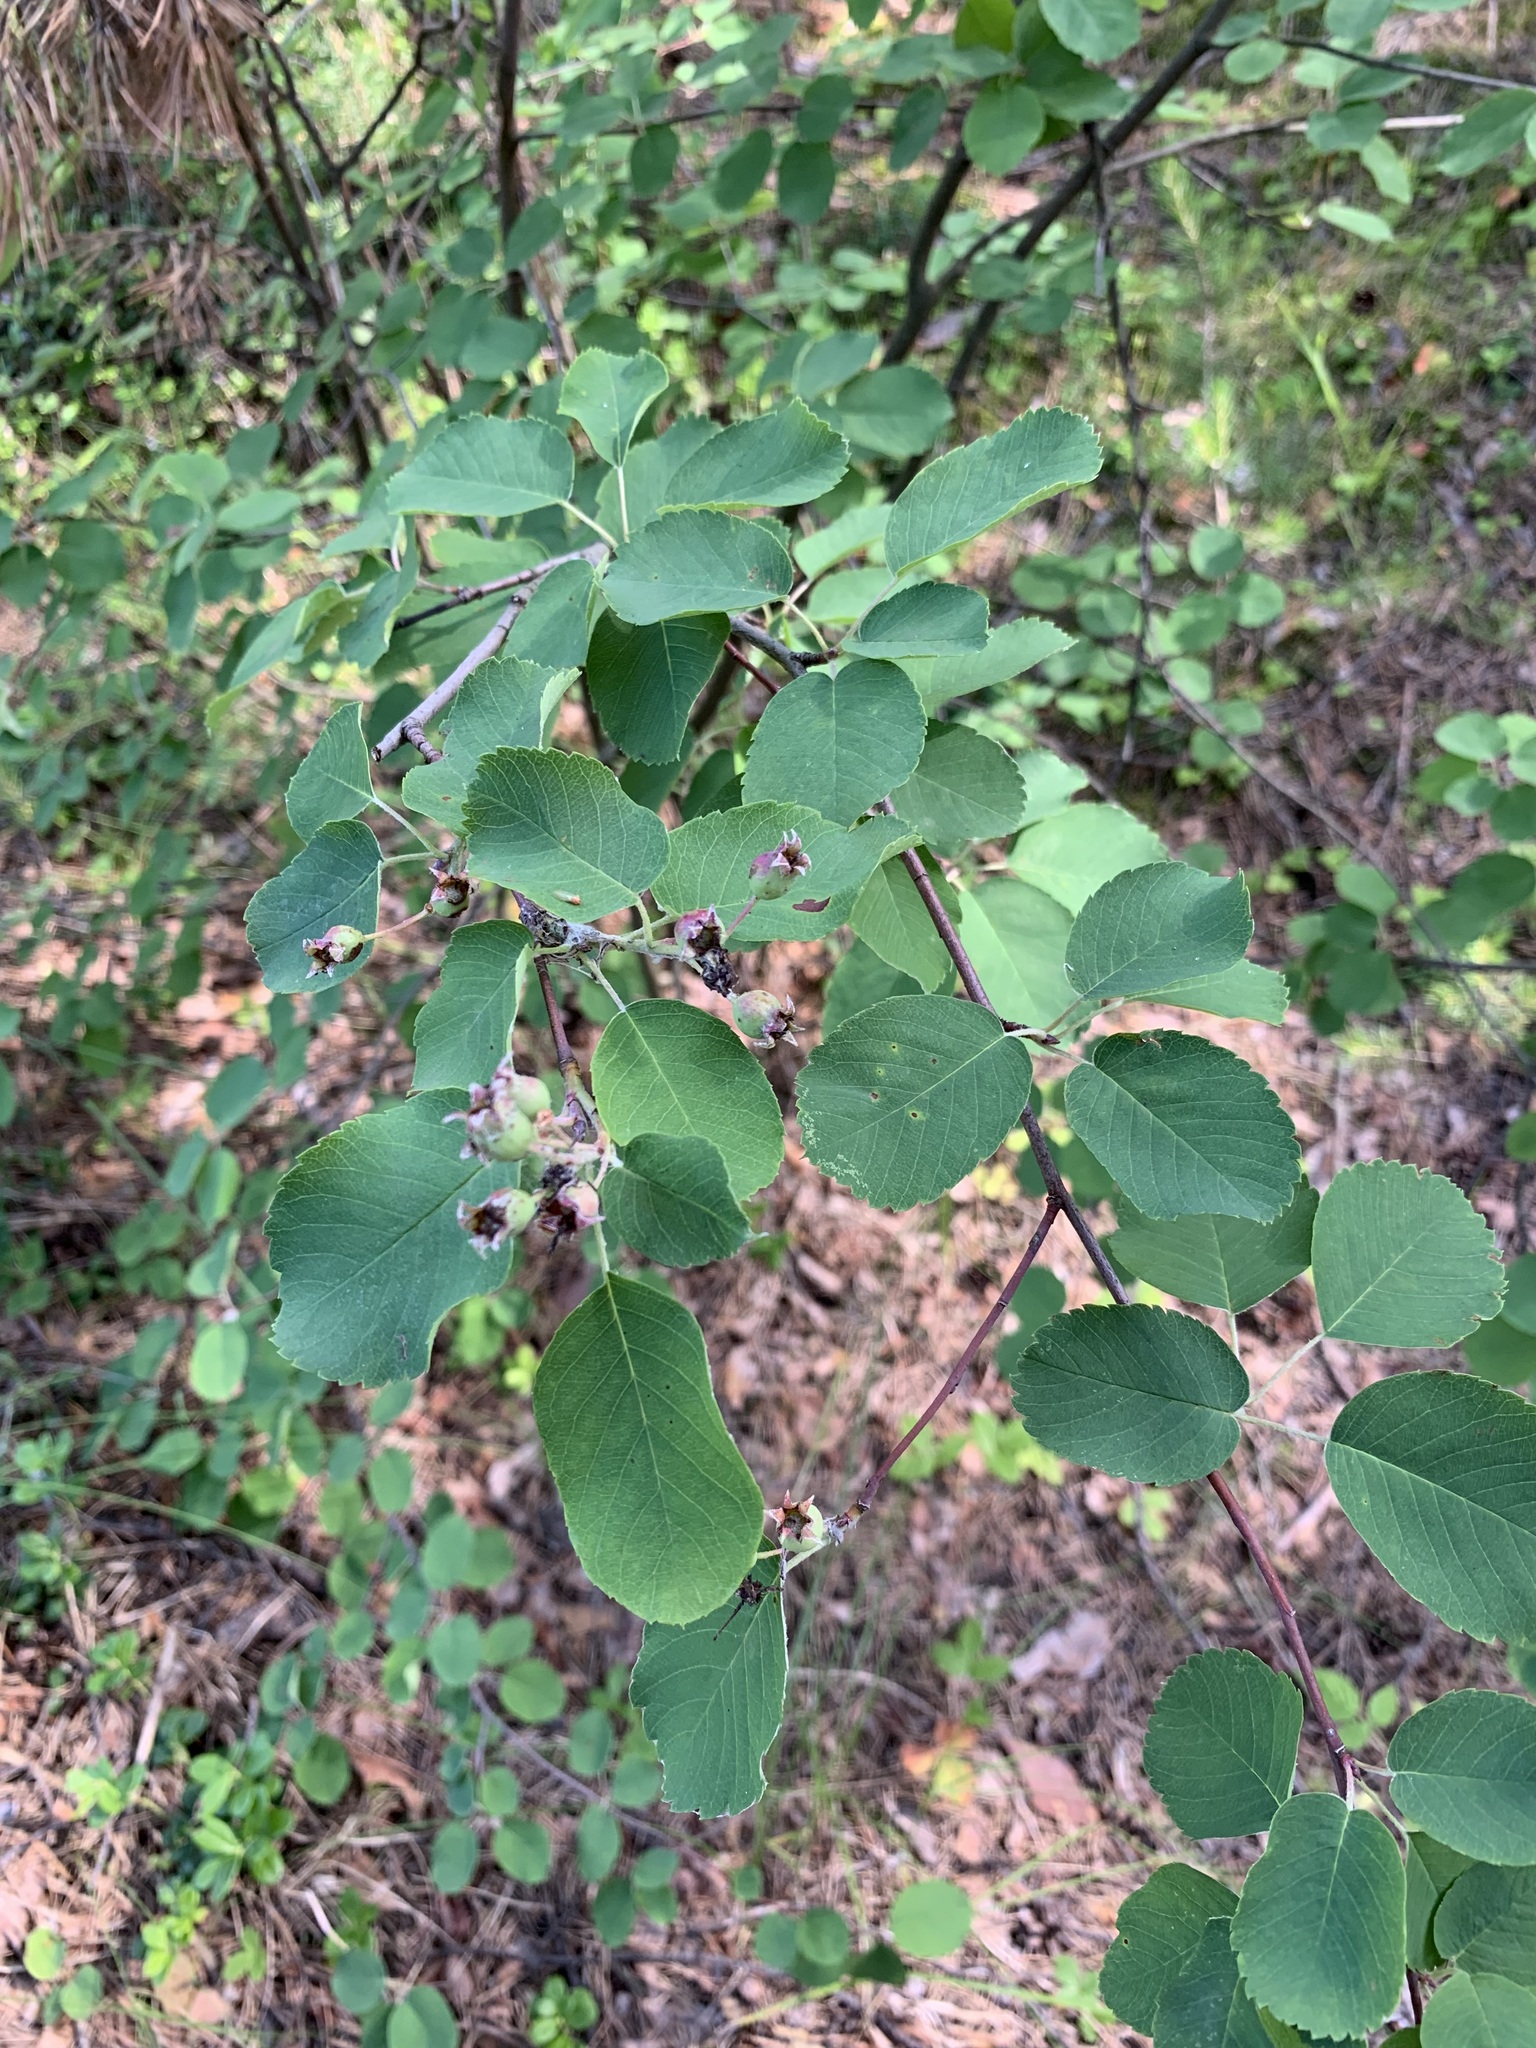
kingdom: Plantae
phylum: Tracheophyta
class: Magnoliopsida
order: Rosales
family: Rosaceae
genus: Amelanchier
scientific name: Amelanchier alnifolia
